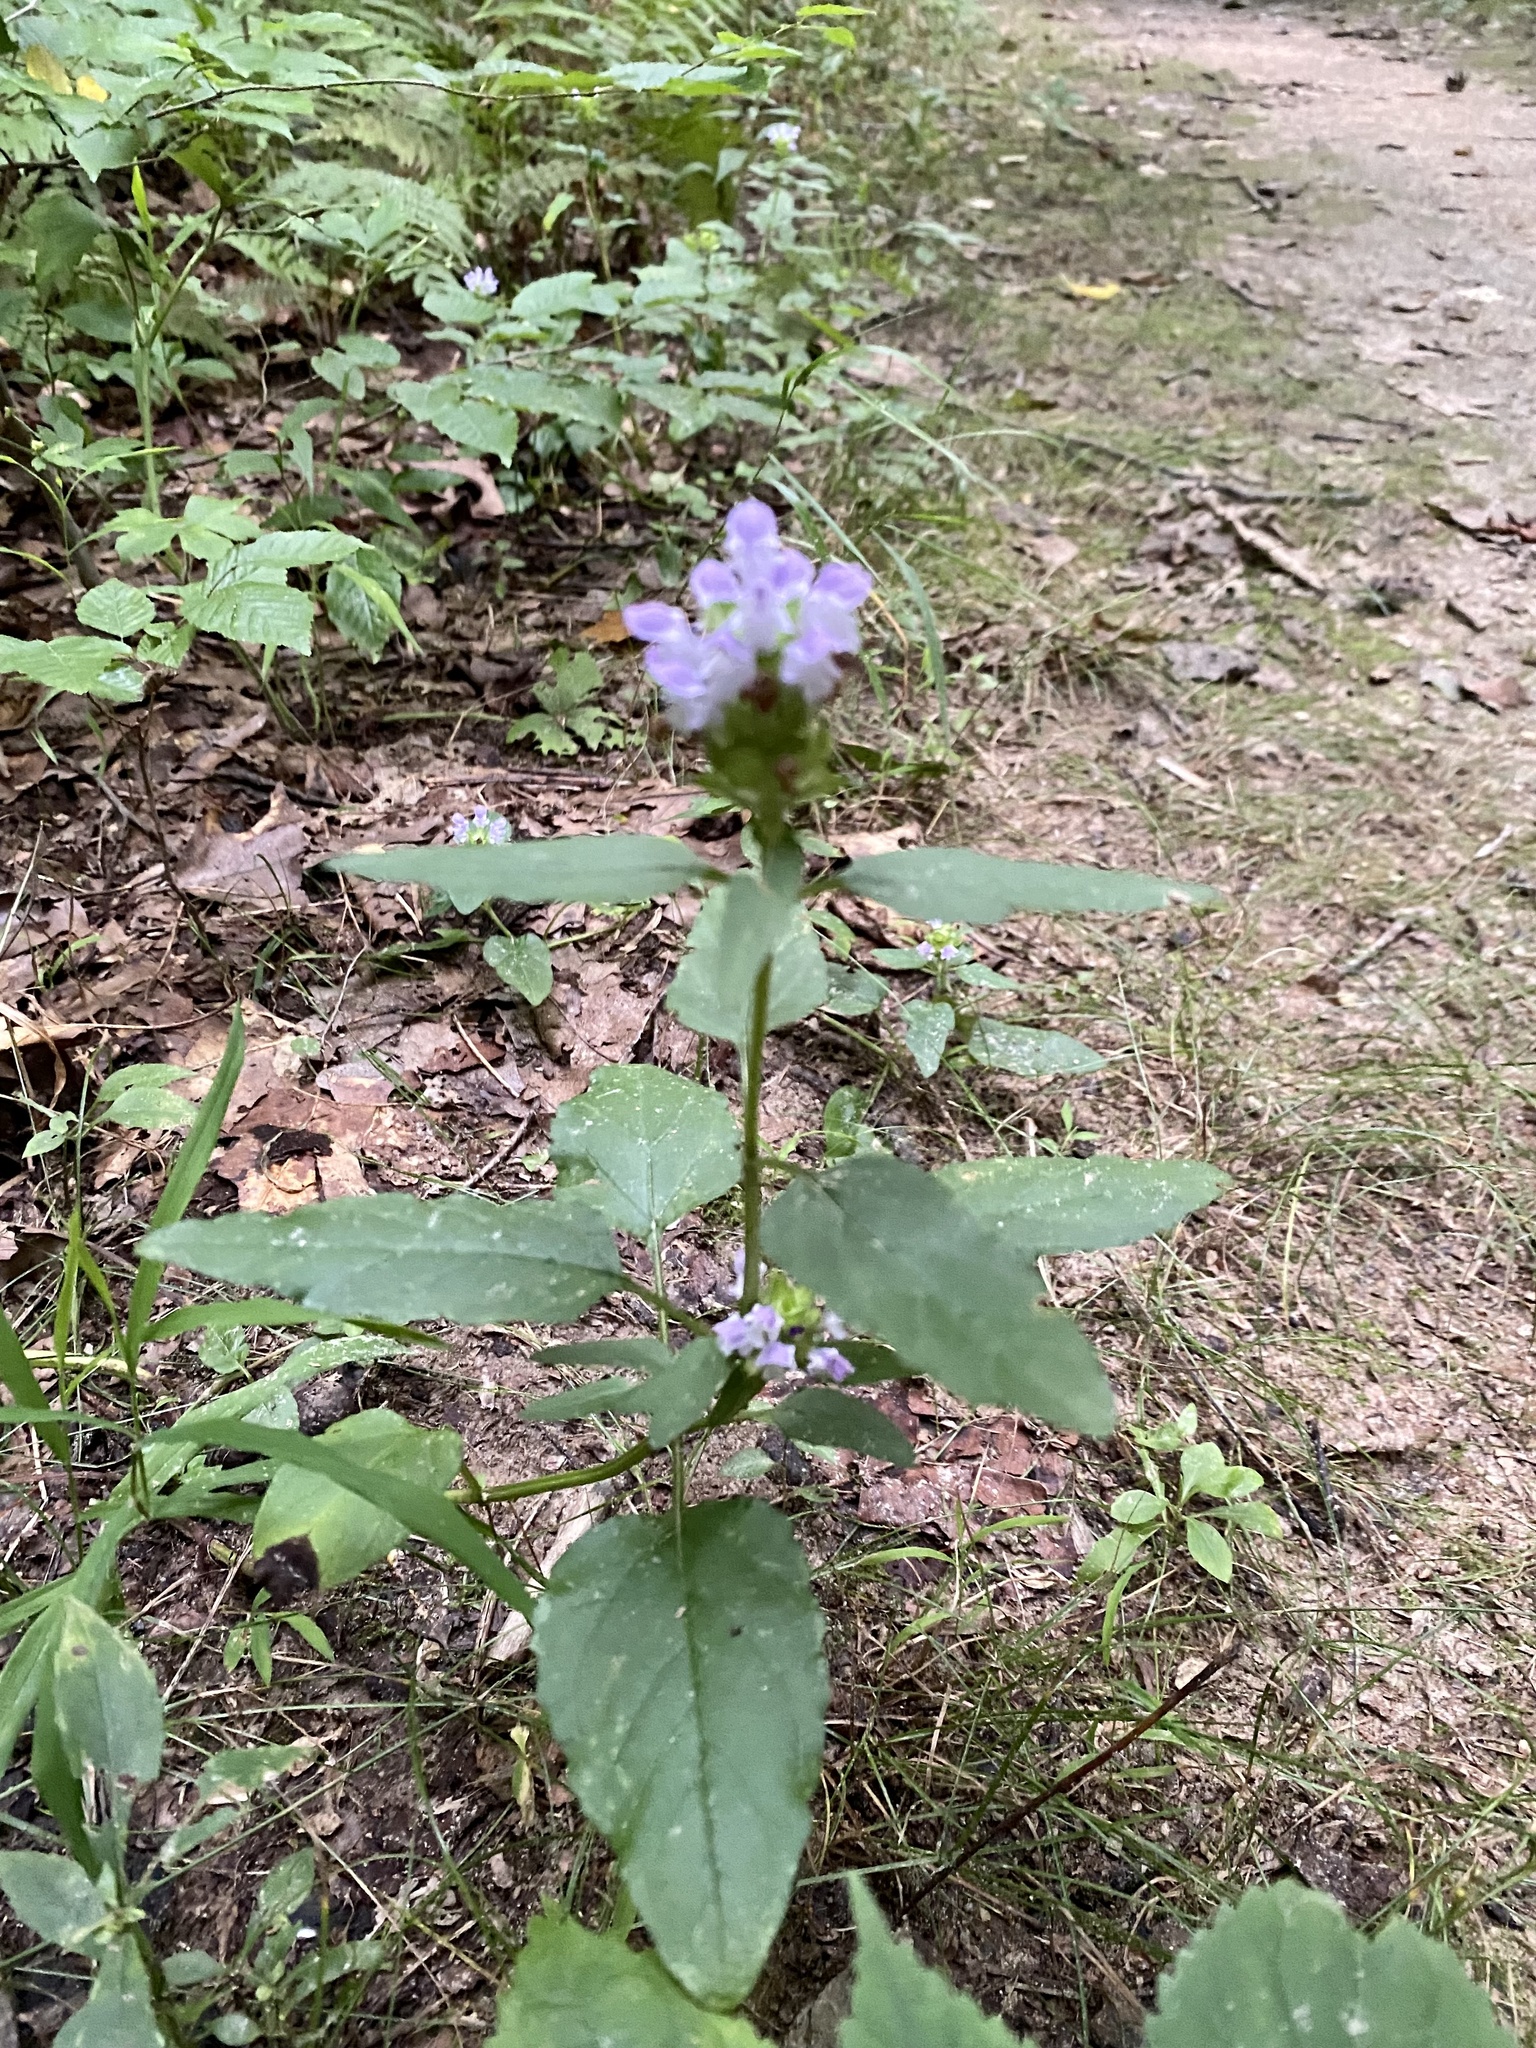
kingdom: Plantae
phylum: Tracheophyta
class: Magnoliopsida
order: Lamiales
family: Lamiaceae
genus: Prunella
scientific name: Prunella vulgaris
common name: Heal-all
